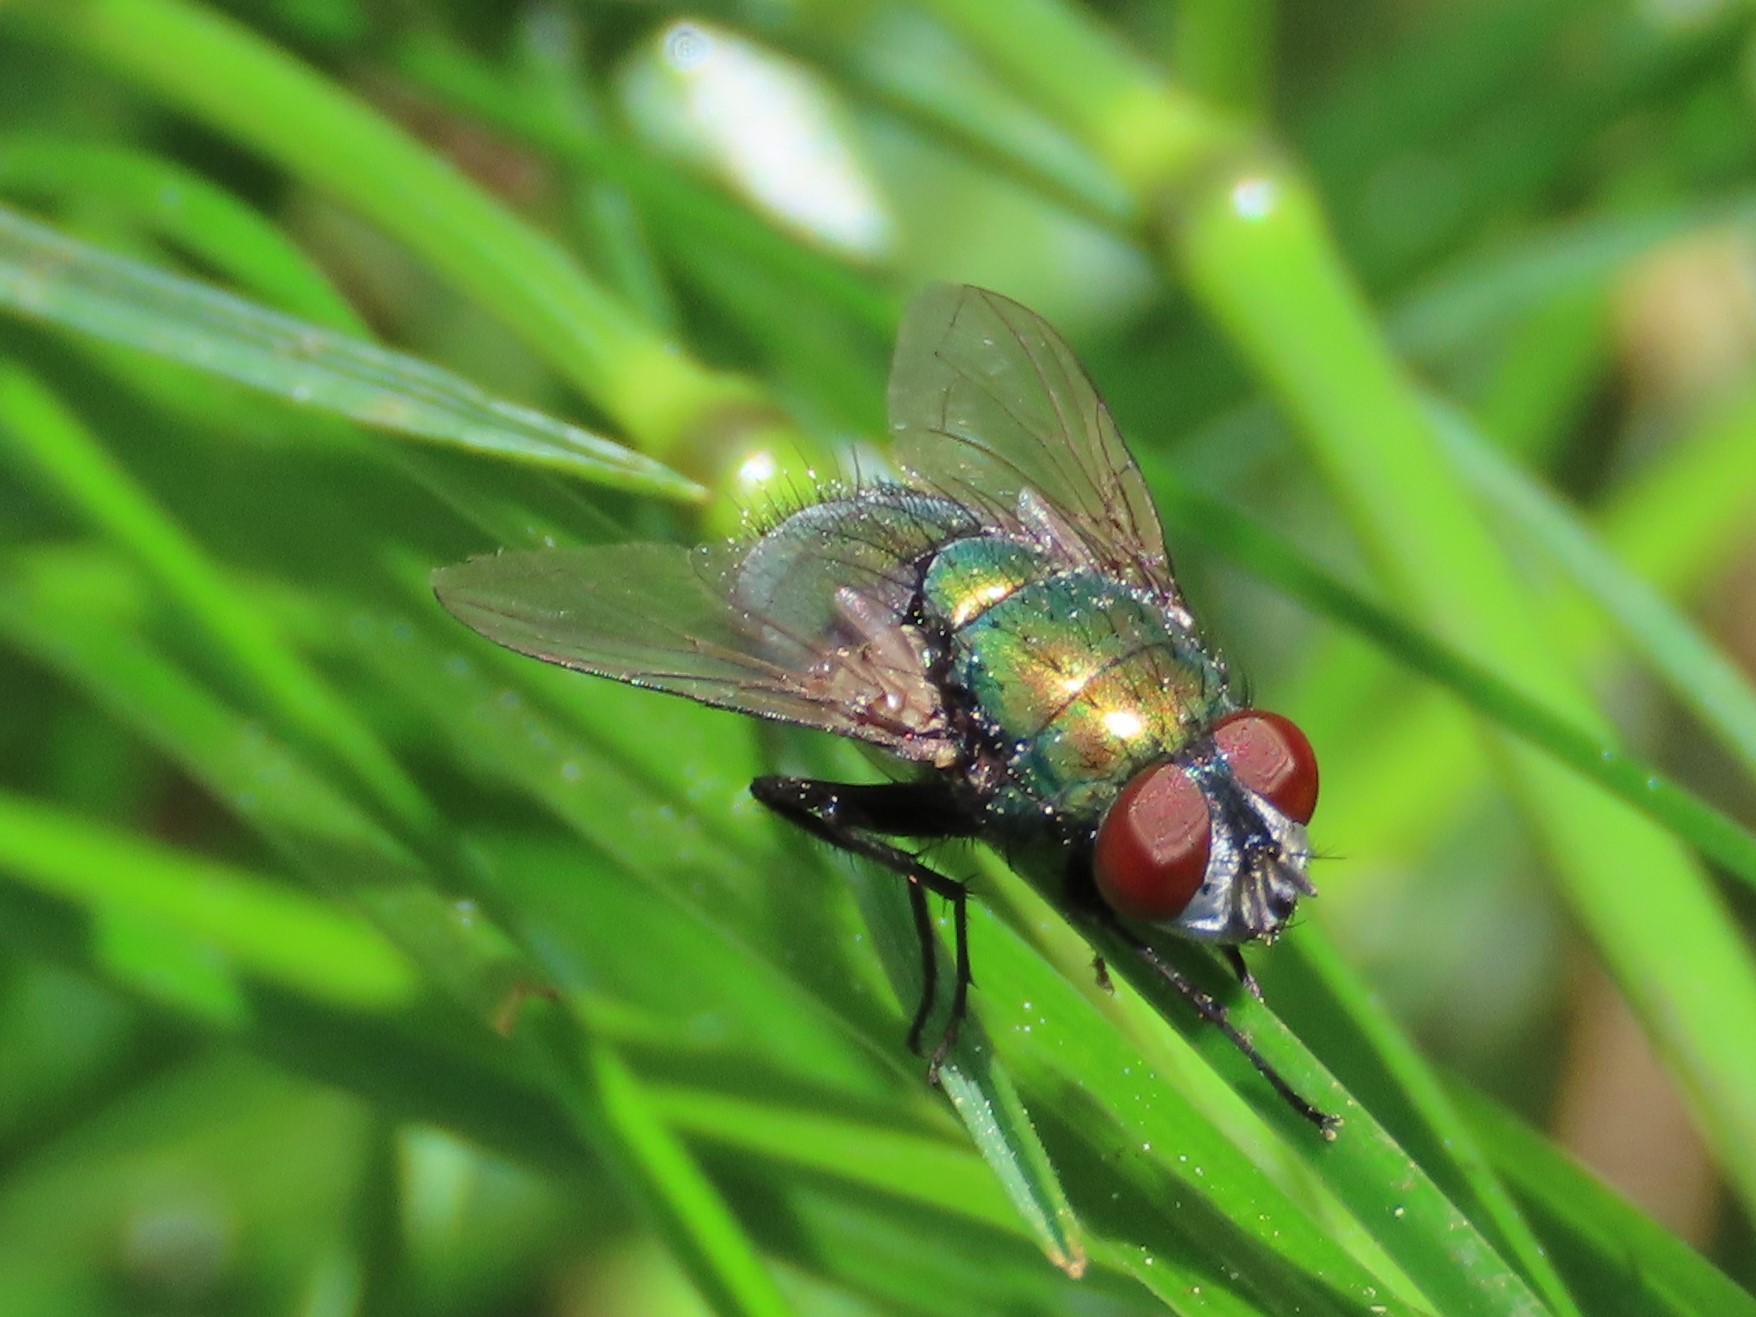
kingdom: Animalia
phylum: Arthropoda
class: Insecta
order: Diptera
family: Calliphoridae
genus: Lucilia
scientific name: Lucilia sericata
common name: Blow fly
